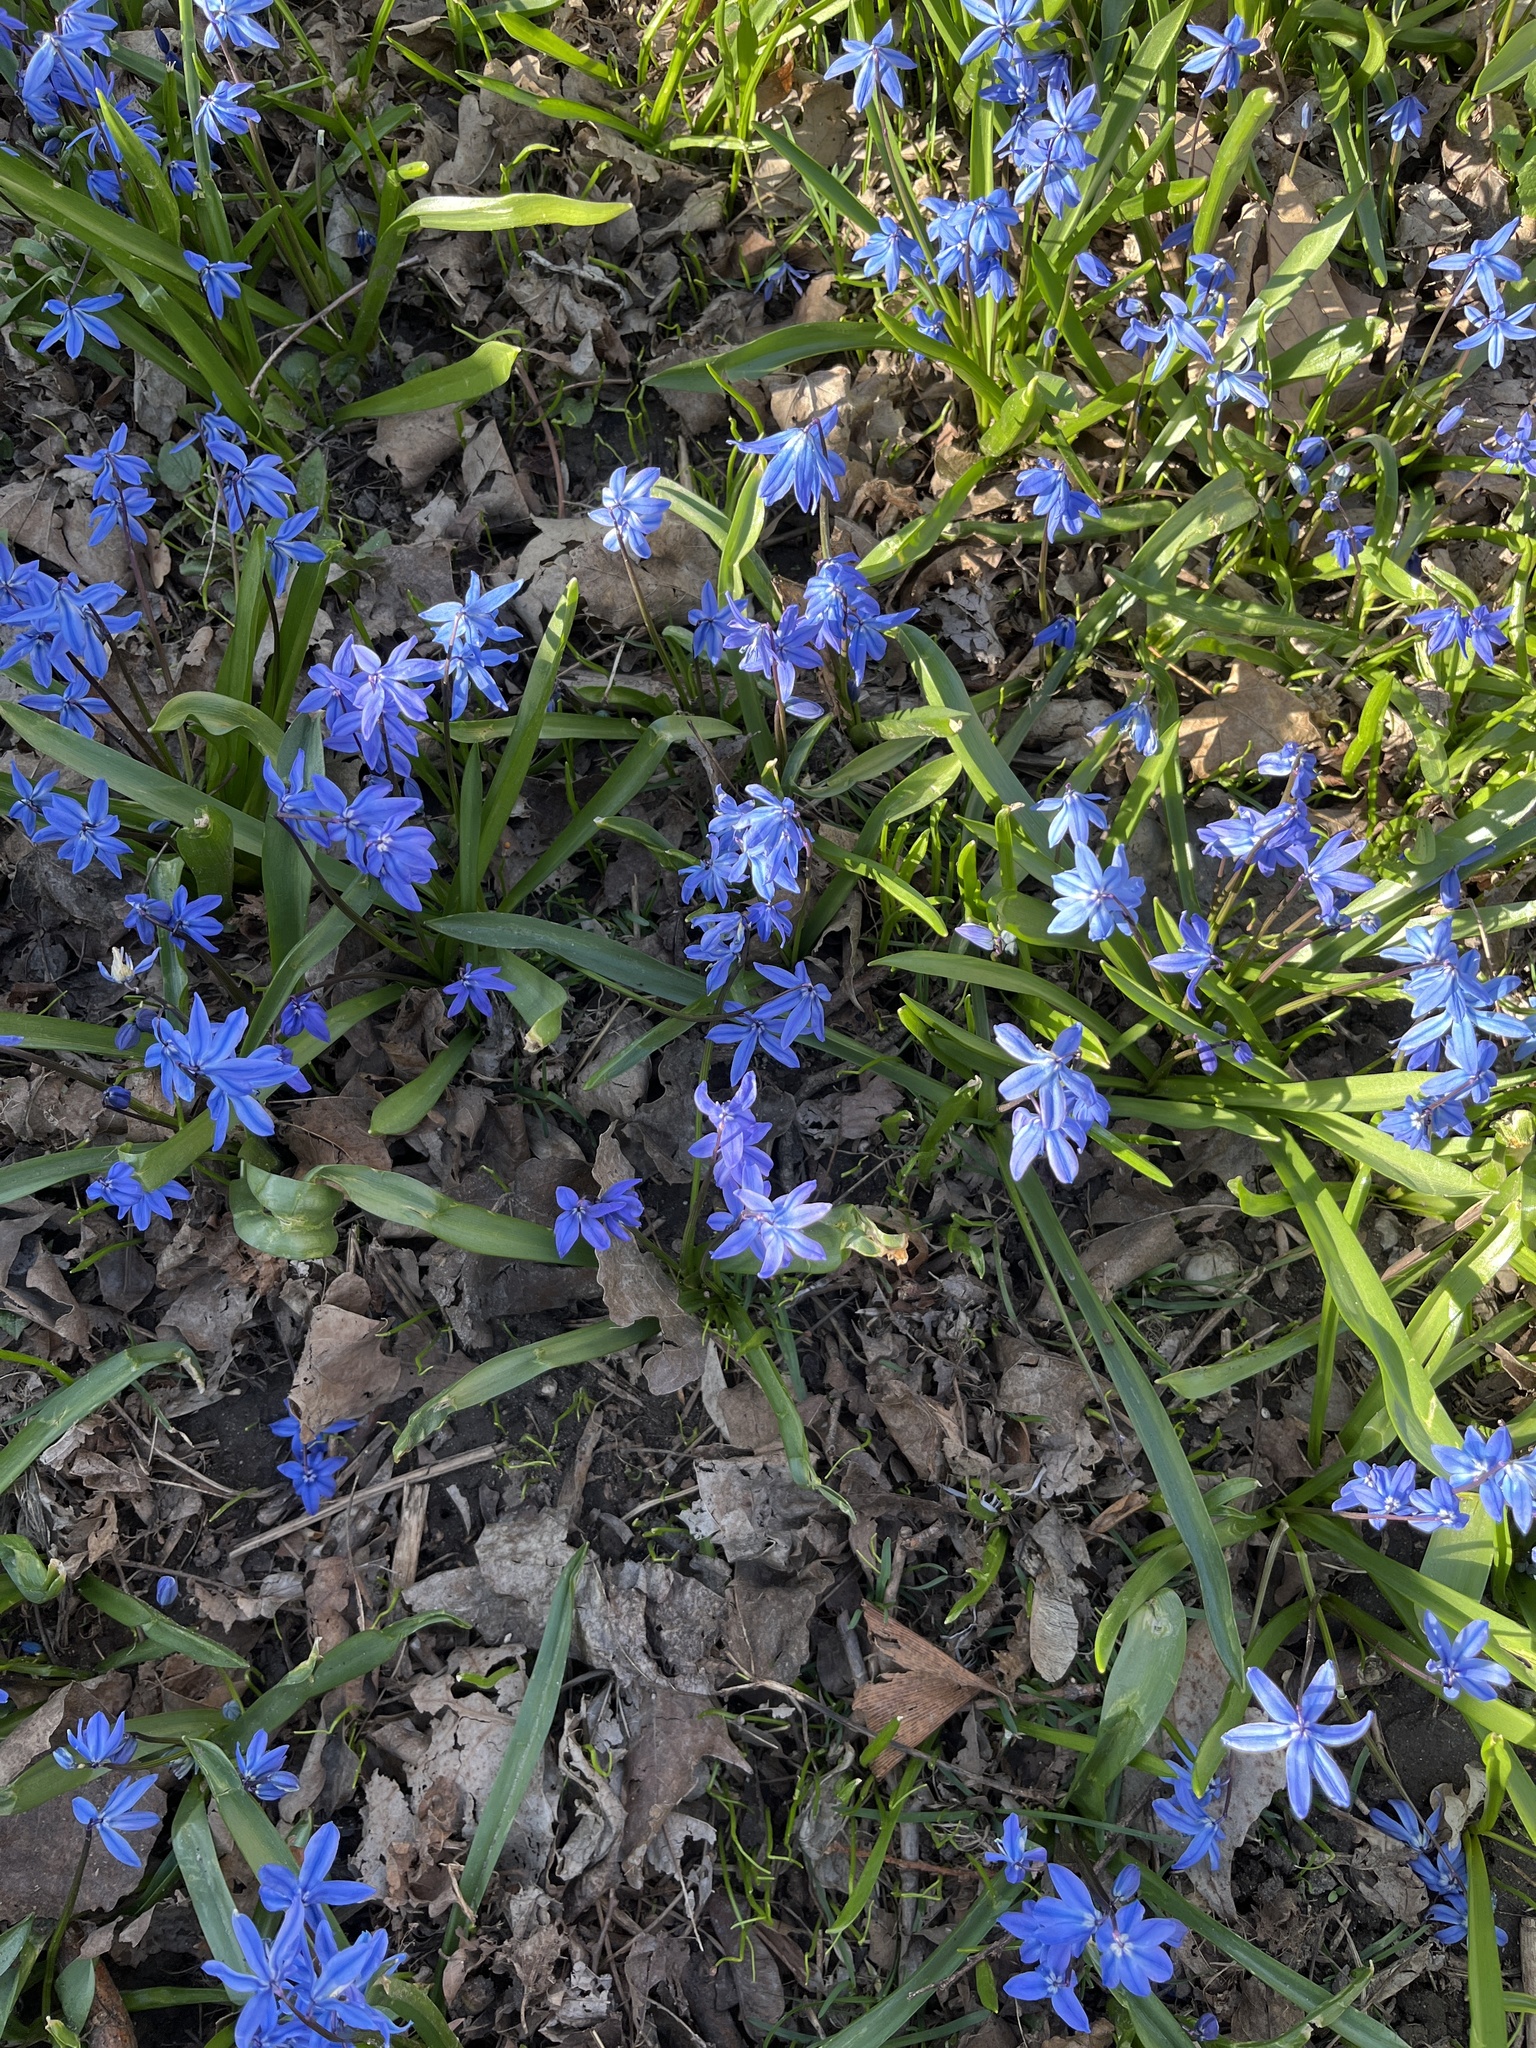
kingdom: Plantae
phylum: Tracheophyta
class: Liliopsida
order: Asparagales
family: Asparagaceae
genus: Scilla
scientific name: Scilla siberica
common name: Siberian squill
